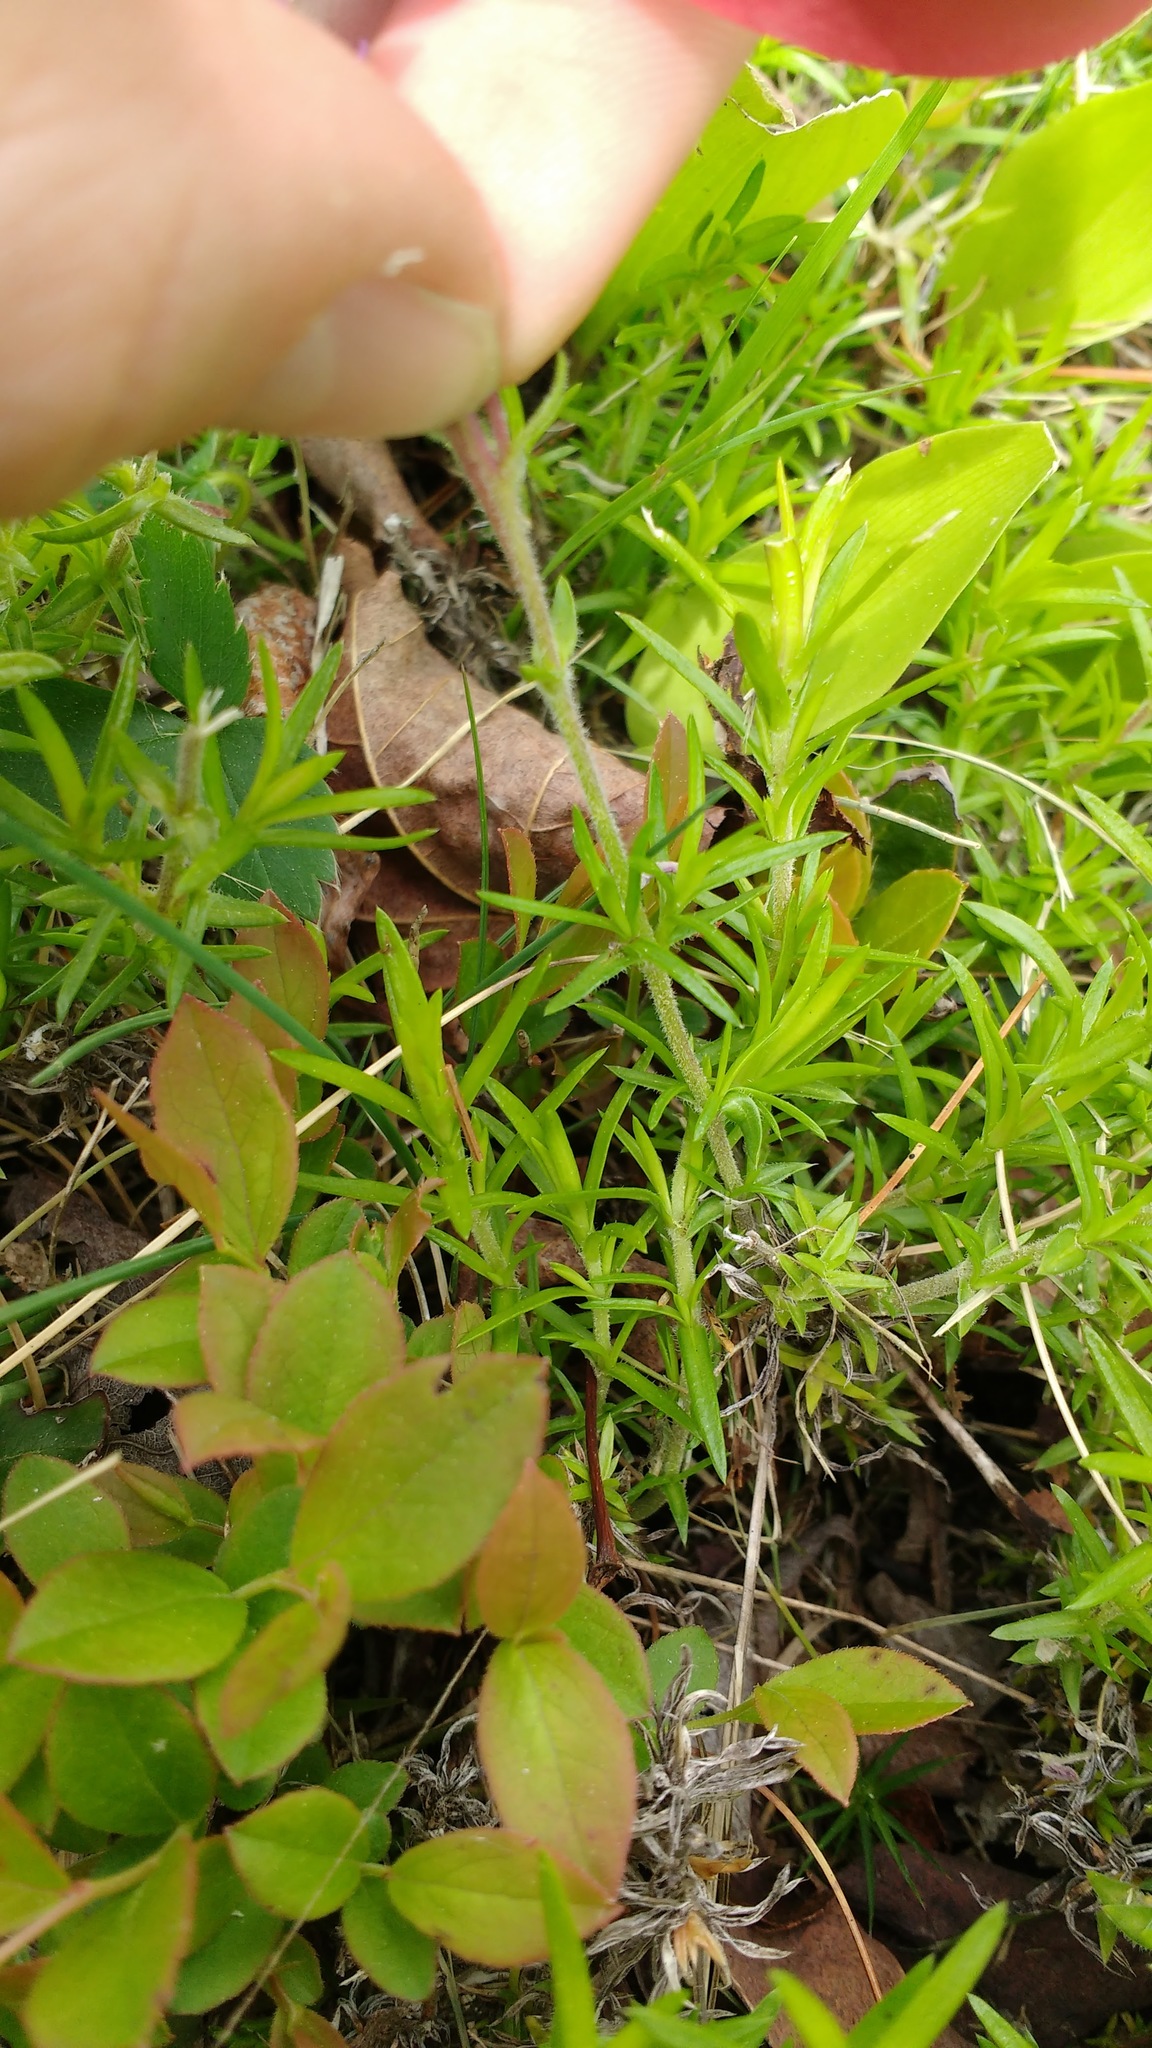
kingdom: Plantae
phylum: Tracheophyta
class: Magnoliopsida
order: Ericales
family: Polemoniaceae
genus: Phlox
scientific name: Phlox subulata
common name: Moss phlox
